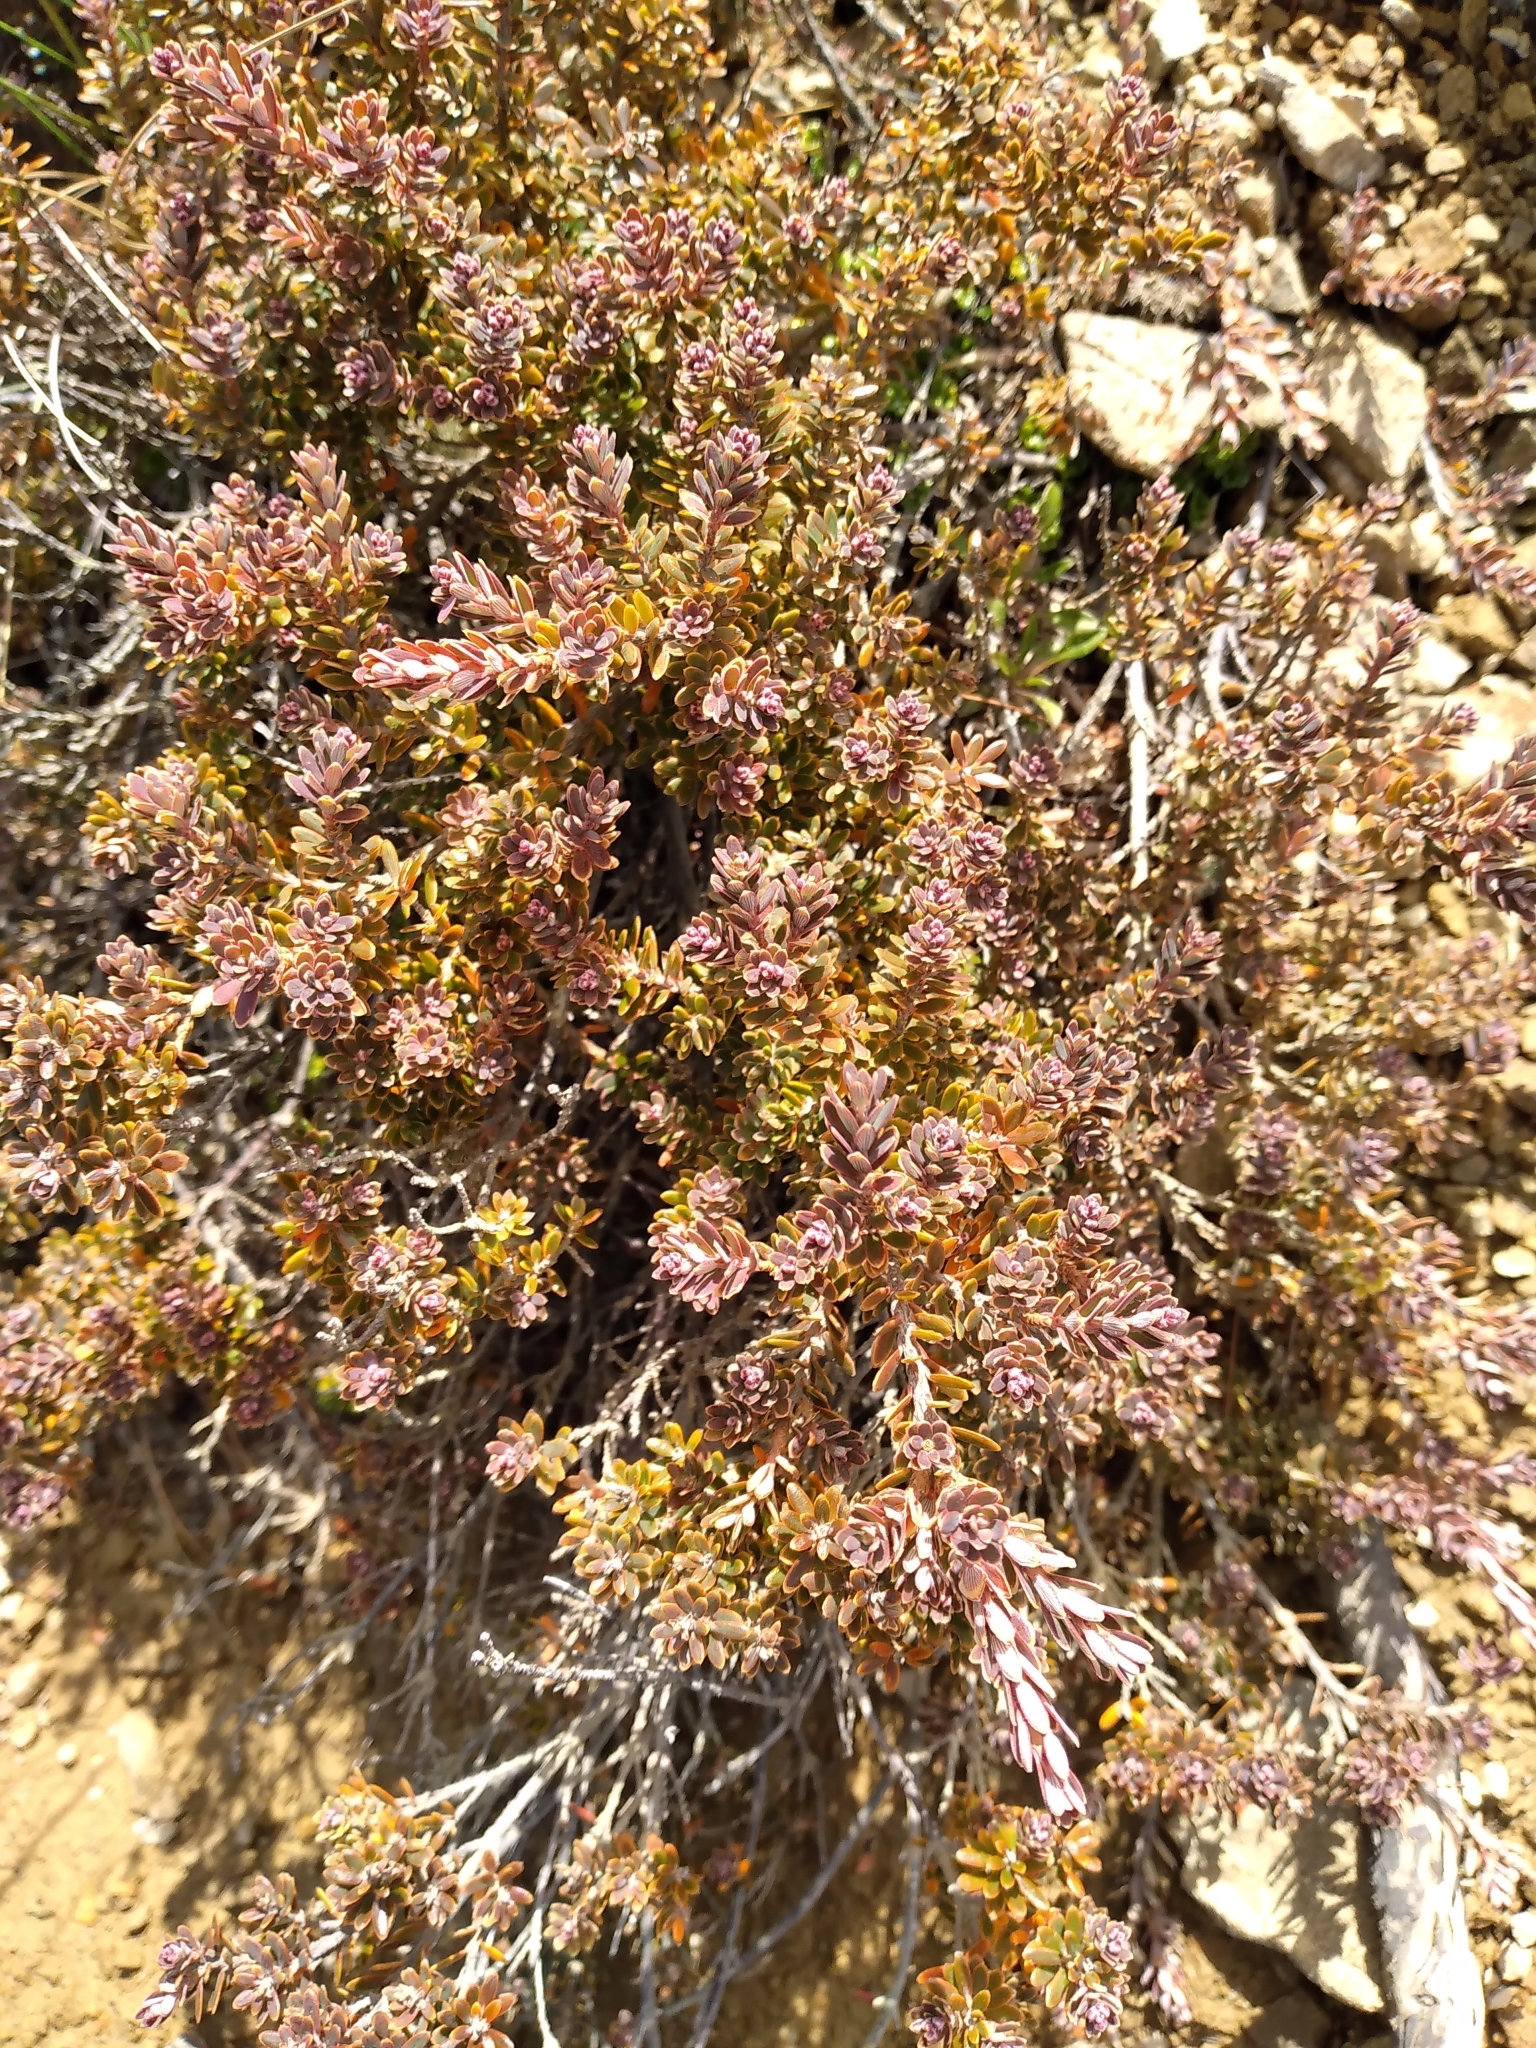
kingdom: Plantae
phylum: Tracheophyta
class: Magnoliopsida
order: Ericales
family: Ericaceae
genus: Acrothamnus
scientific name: Acrothamnus colensoi
